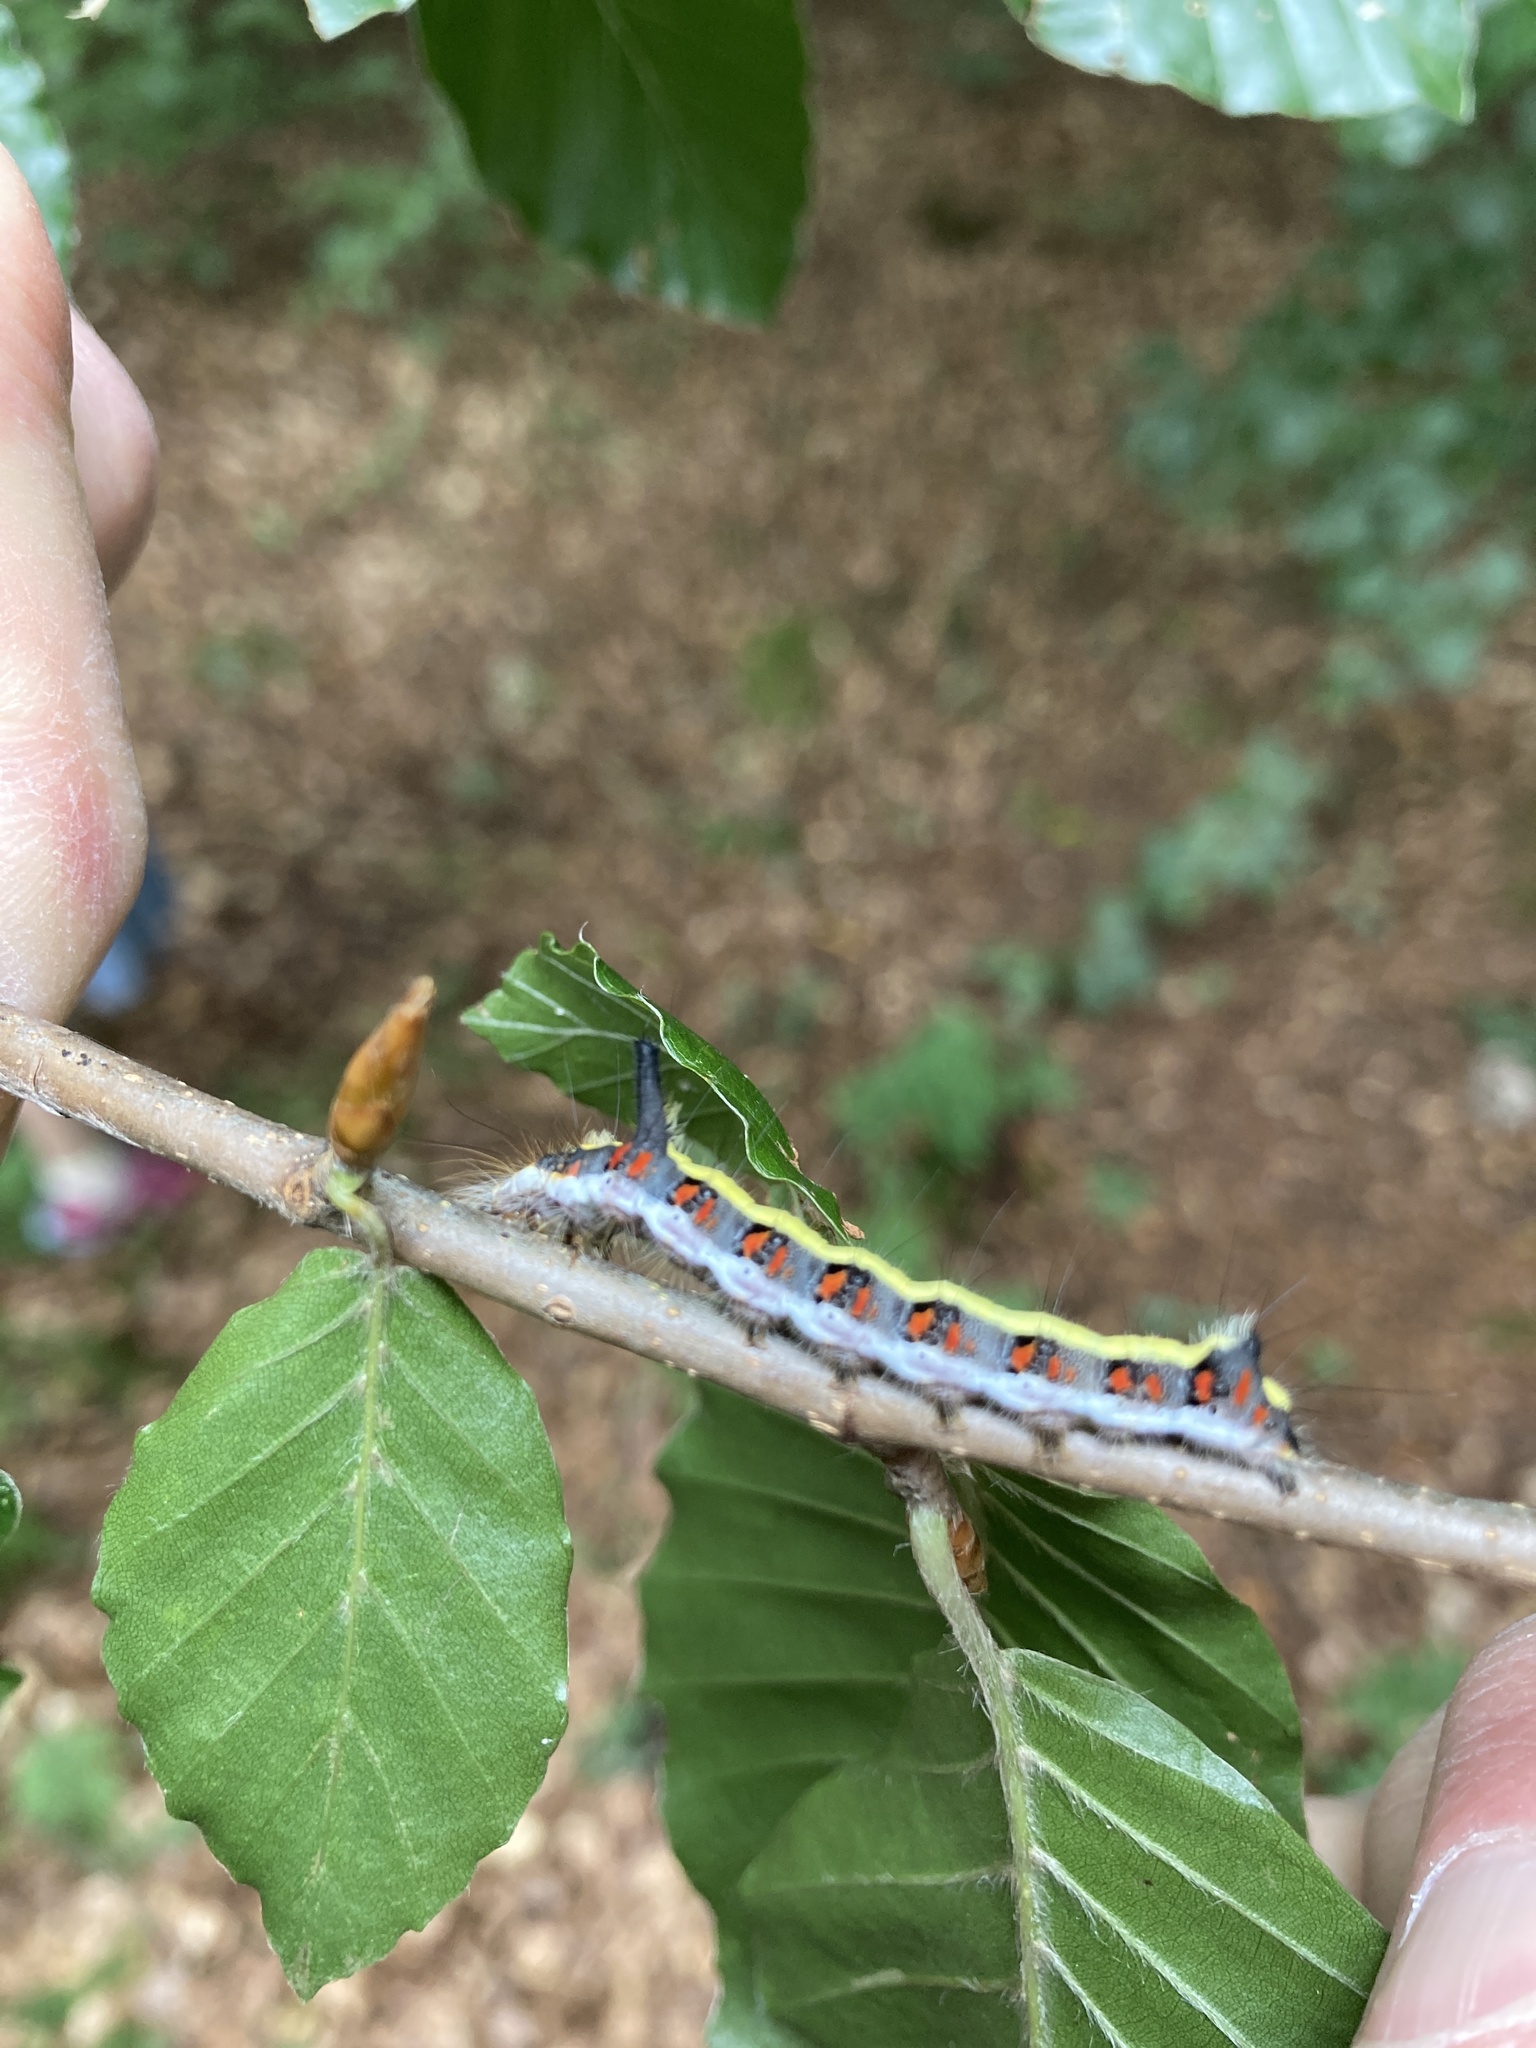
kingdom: Animalia
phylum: Arthropoda
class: Insecta
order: Lepidoptera
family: Noctuidae
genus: Acronicta
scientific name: Acronicta psi
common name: Grey dagger
